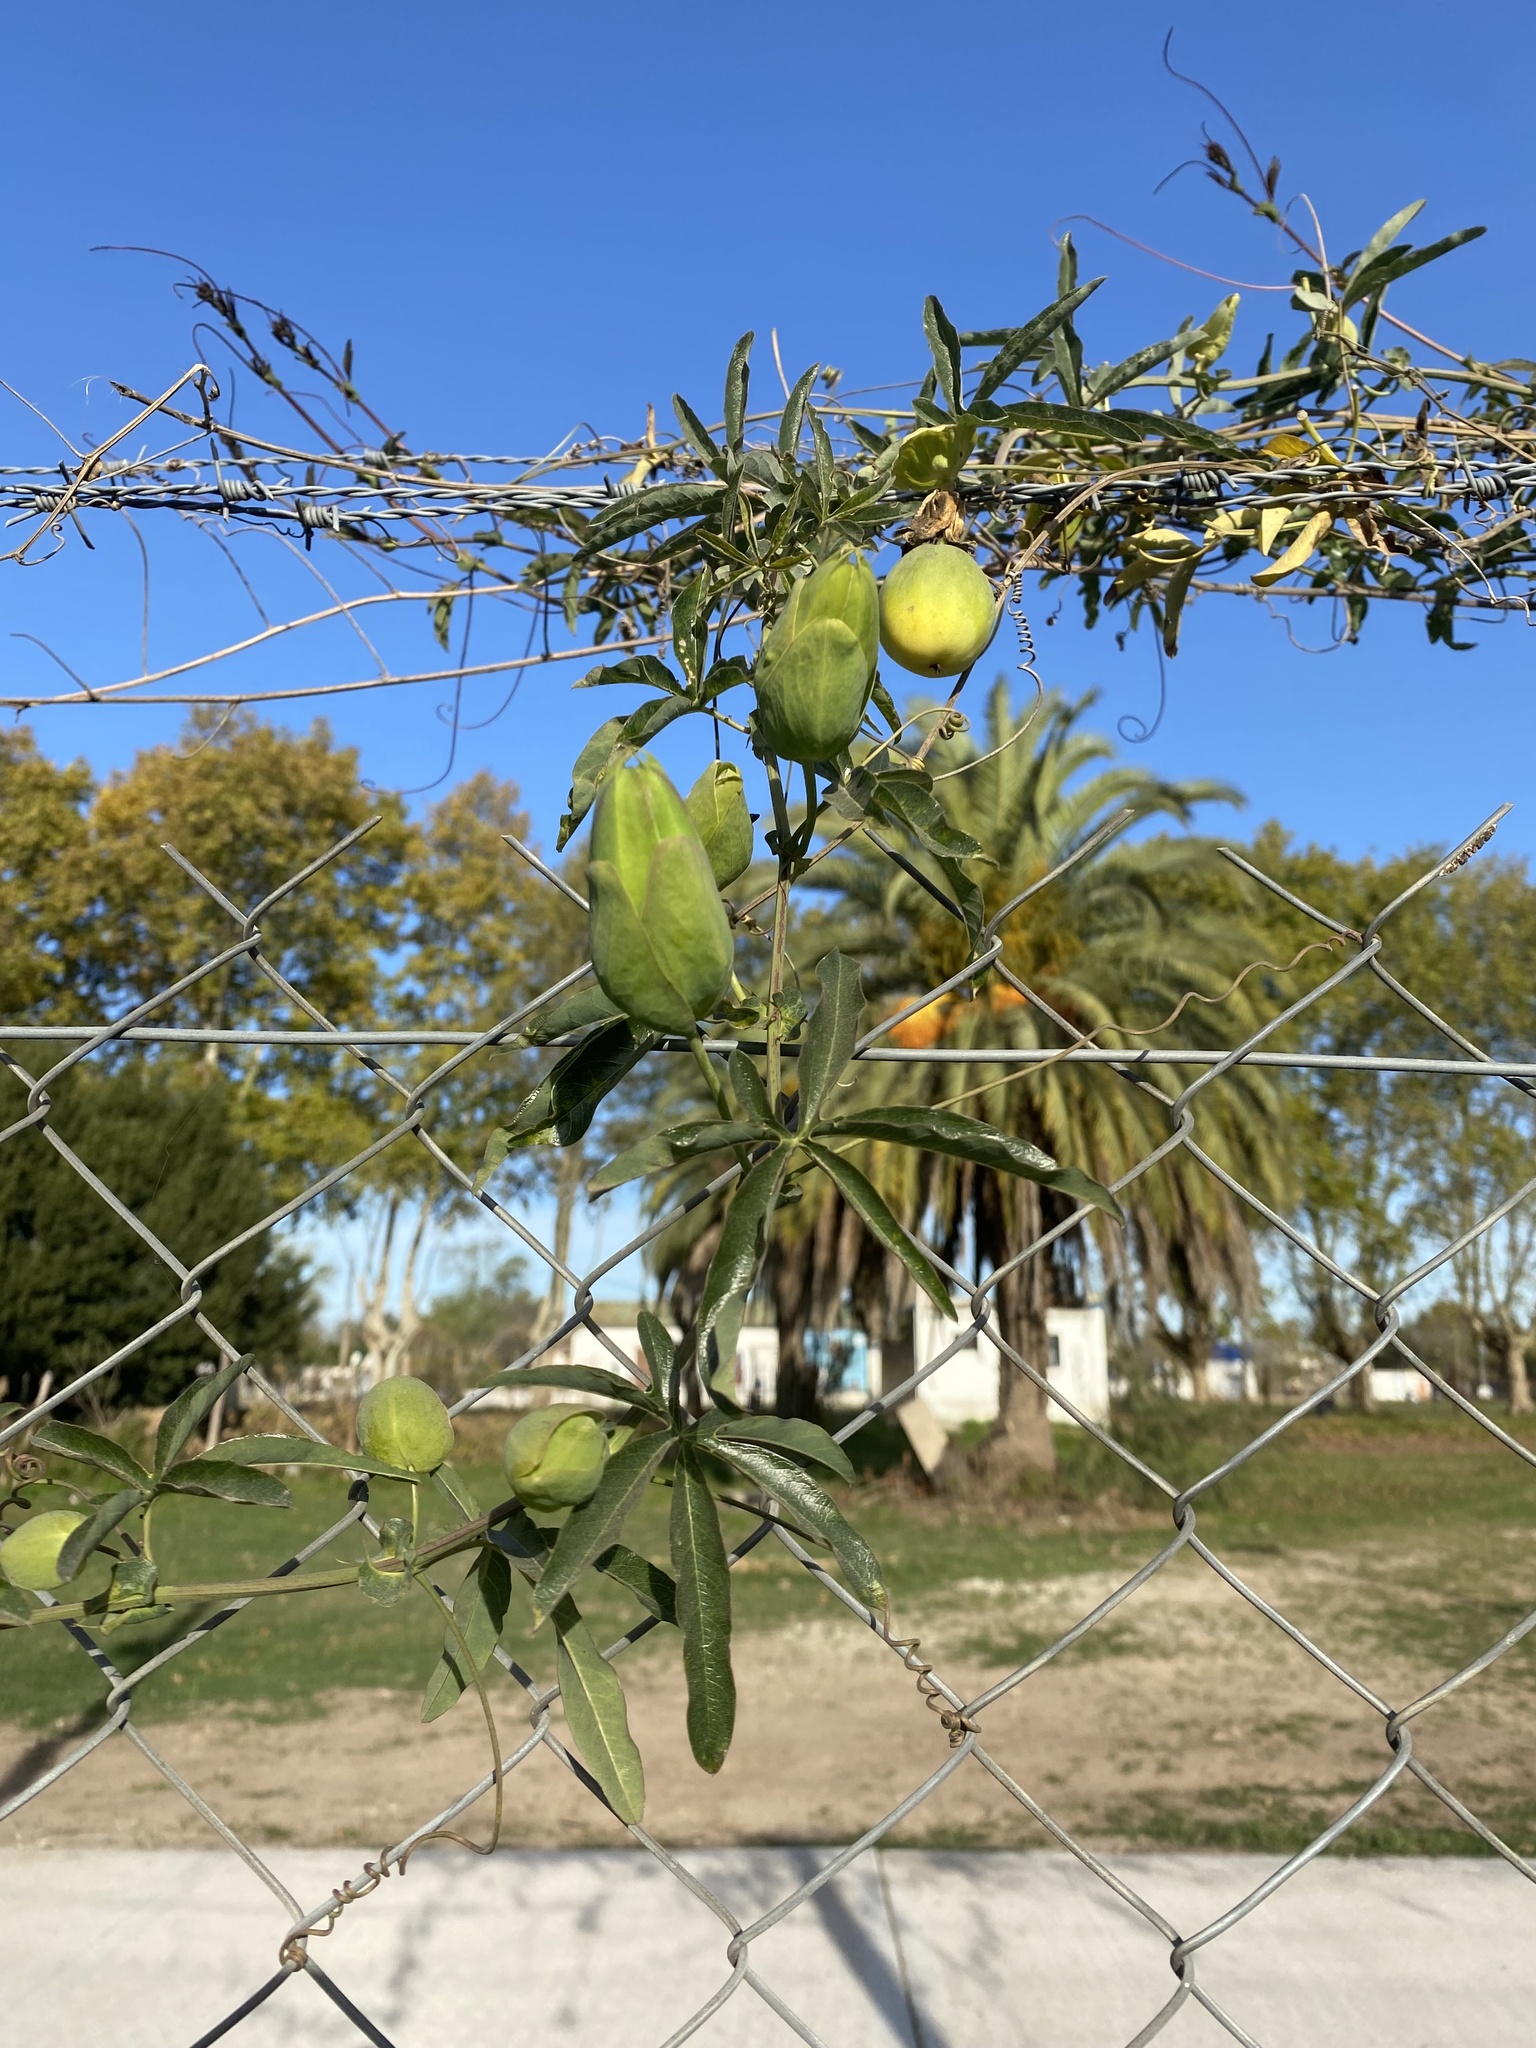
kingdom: Plantae
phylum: Tracheophyta
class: Magnoliopsida
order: Malpighiales
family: Passifloraceae
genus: Passiflora
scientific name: Passiflora caerulea
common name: Blue passionflower
